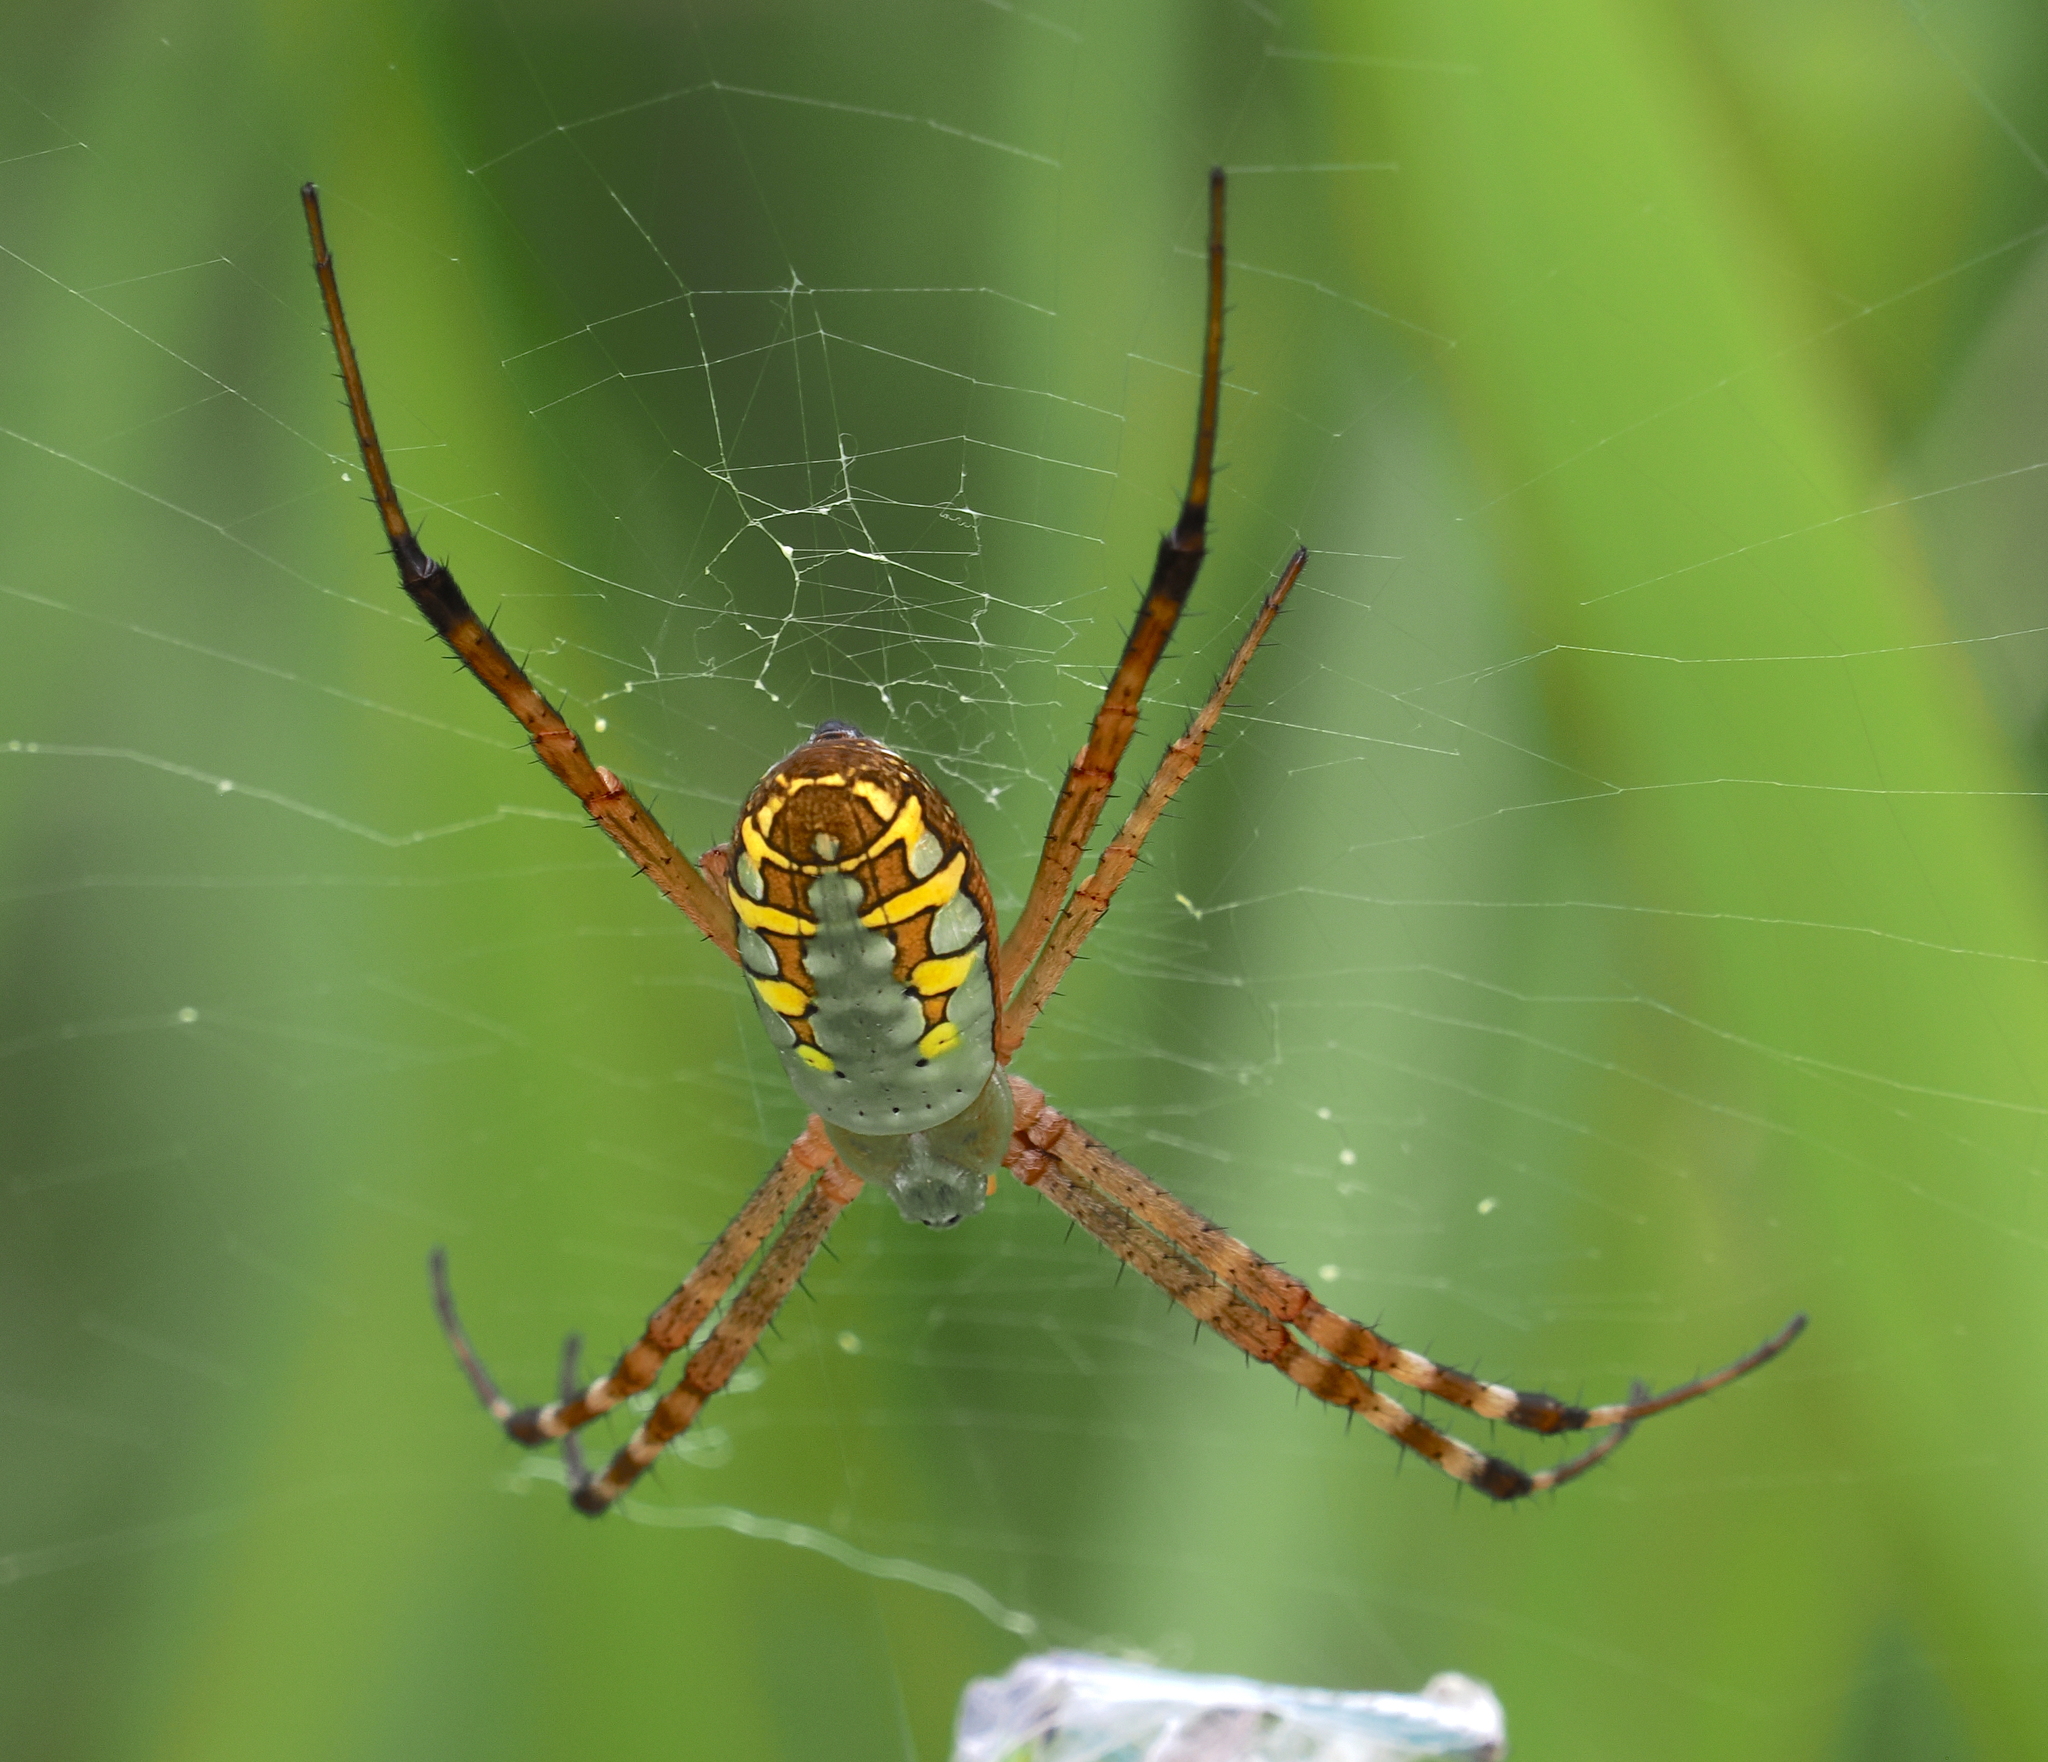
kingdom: Animalia
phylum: Arthropoda
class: Arachnida
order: Araneae
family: Araneidae
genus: Argiope
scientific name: Argiope catenulata
